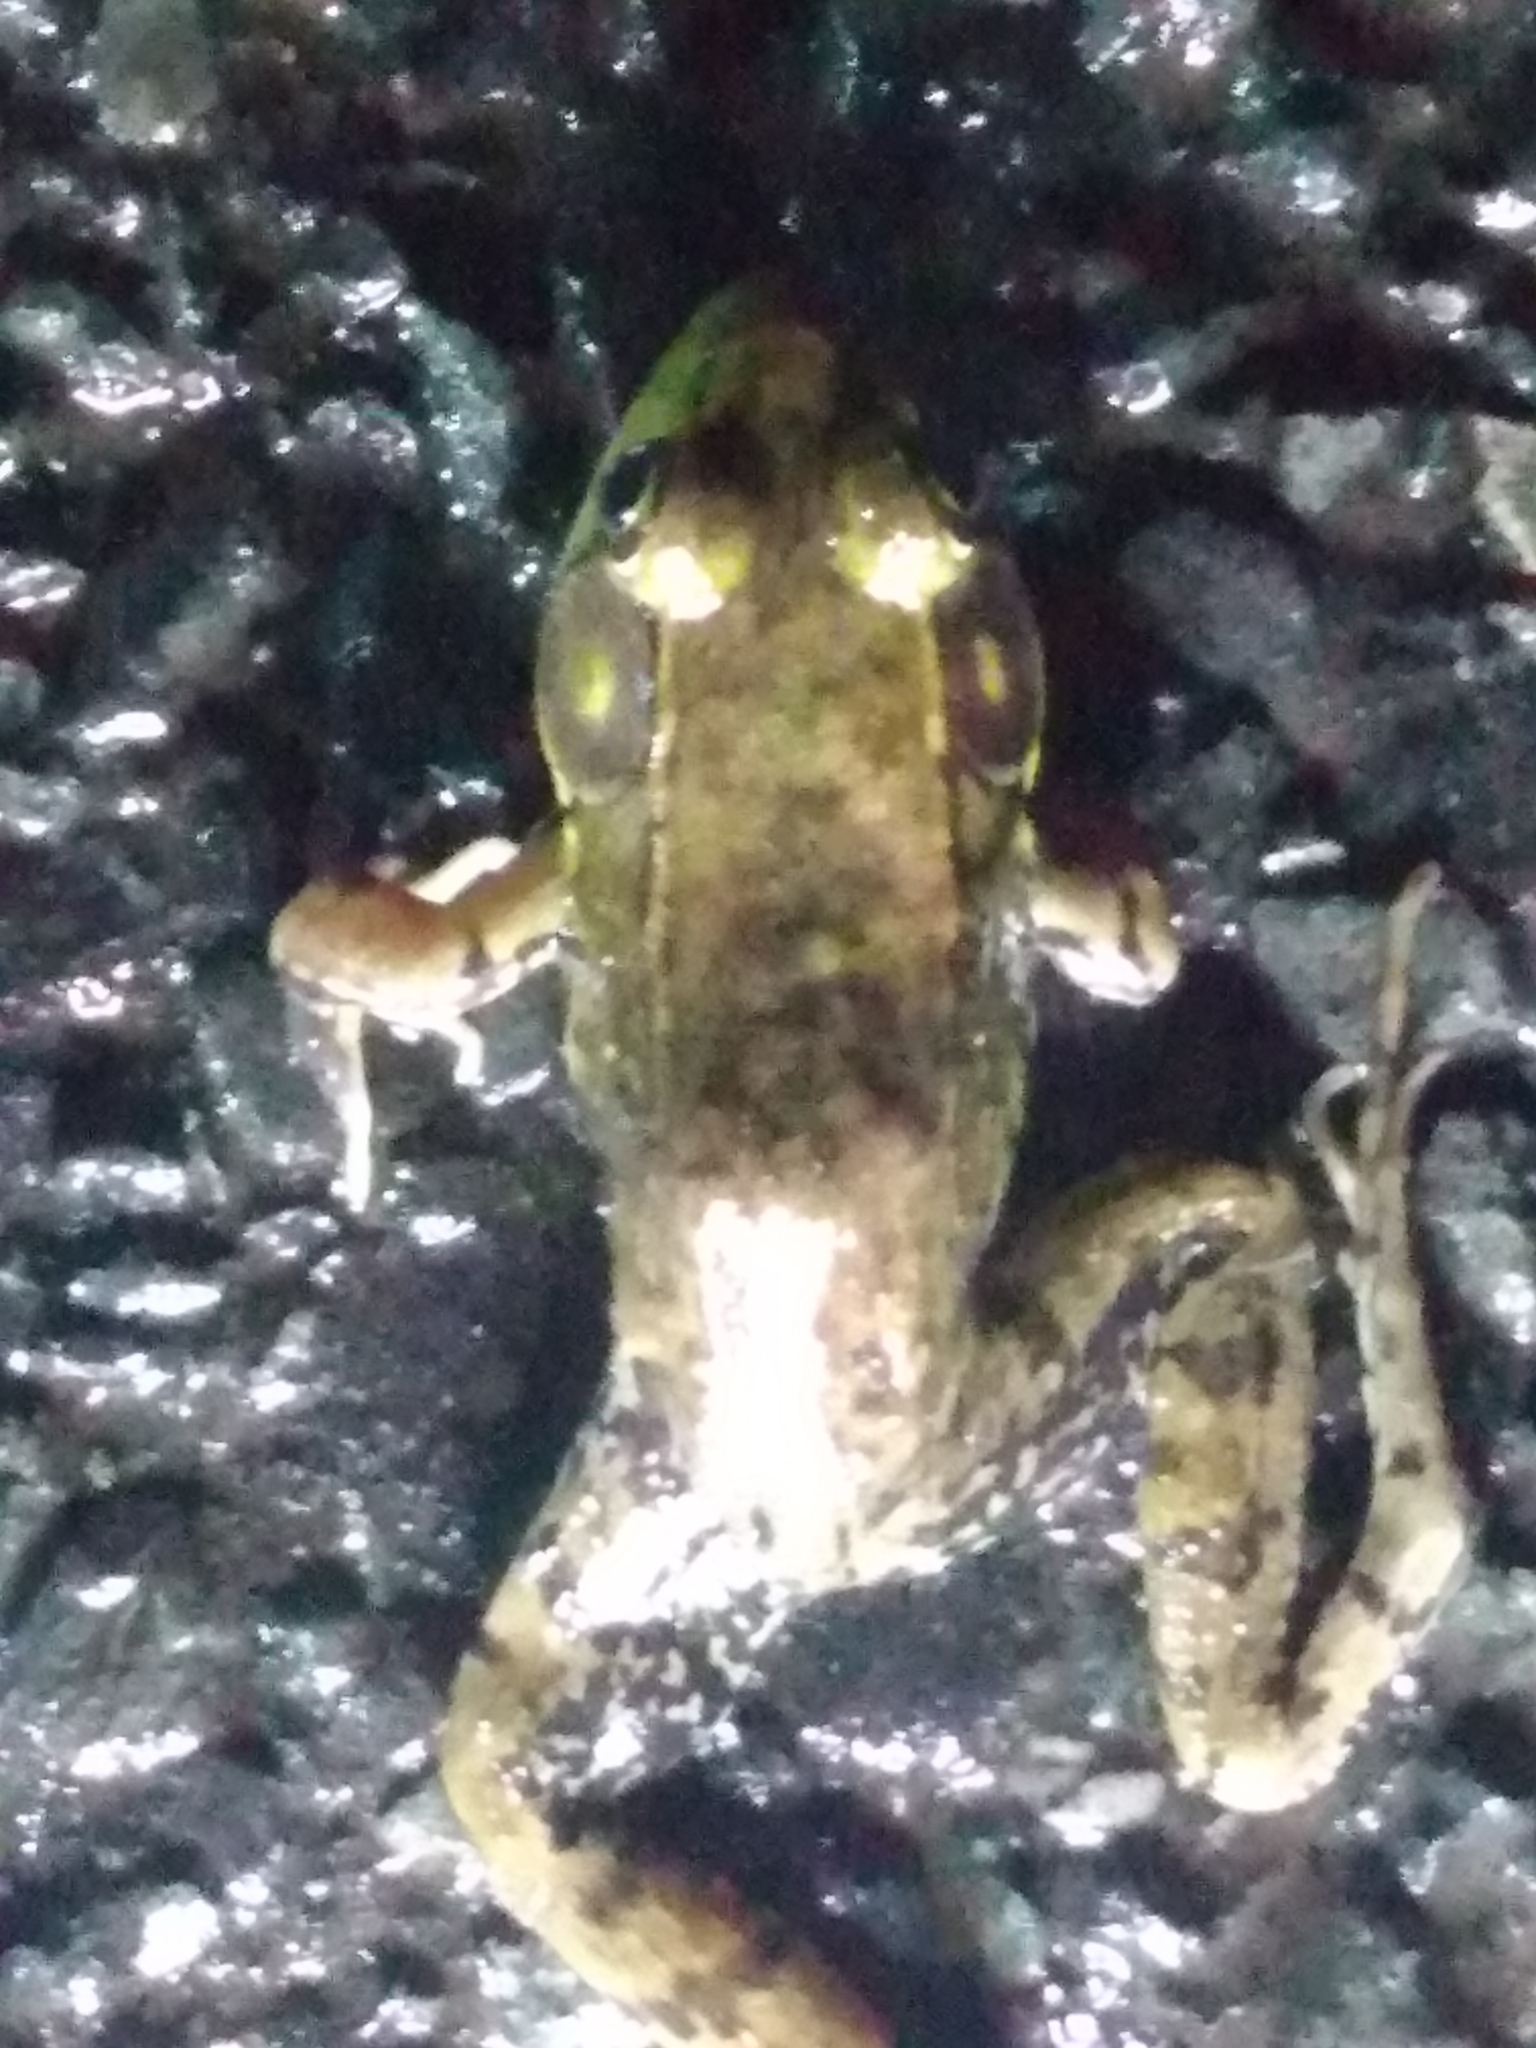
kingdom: Animalia
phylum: Chordata
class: Amphibia
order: Anura
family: Ranidae
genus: Lithobates
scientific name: Lithobates clamitans
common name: Green frog
